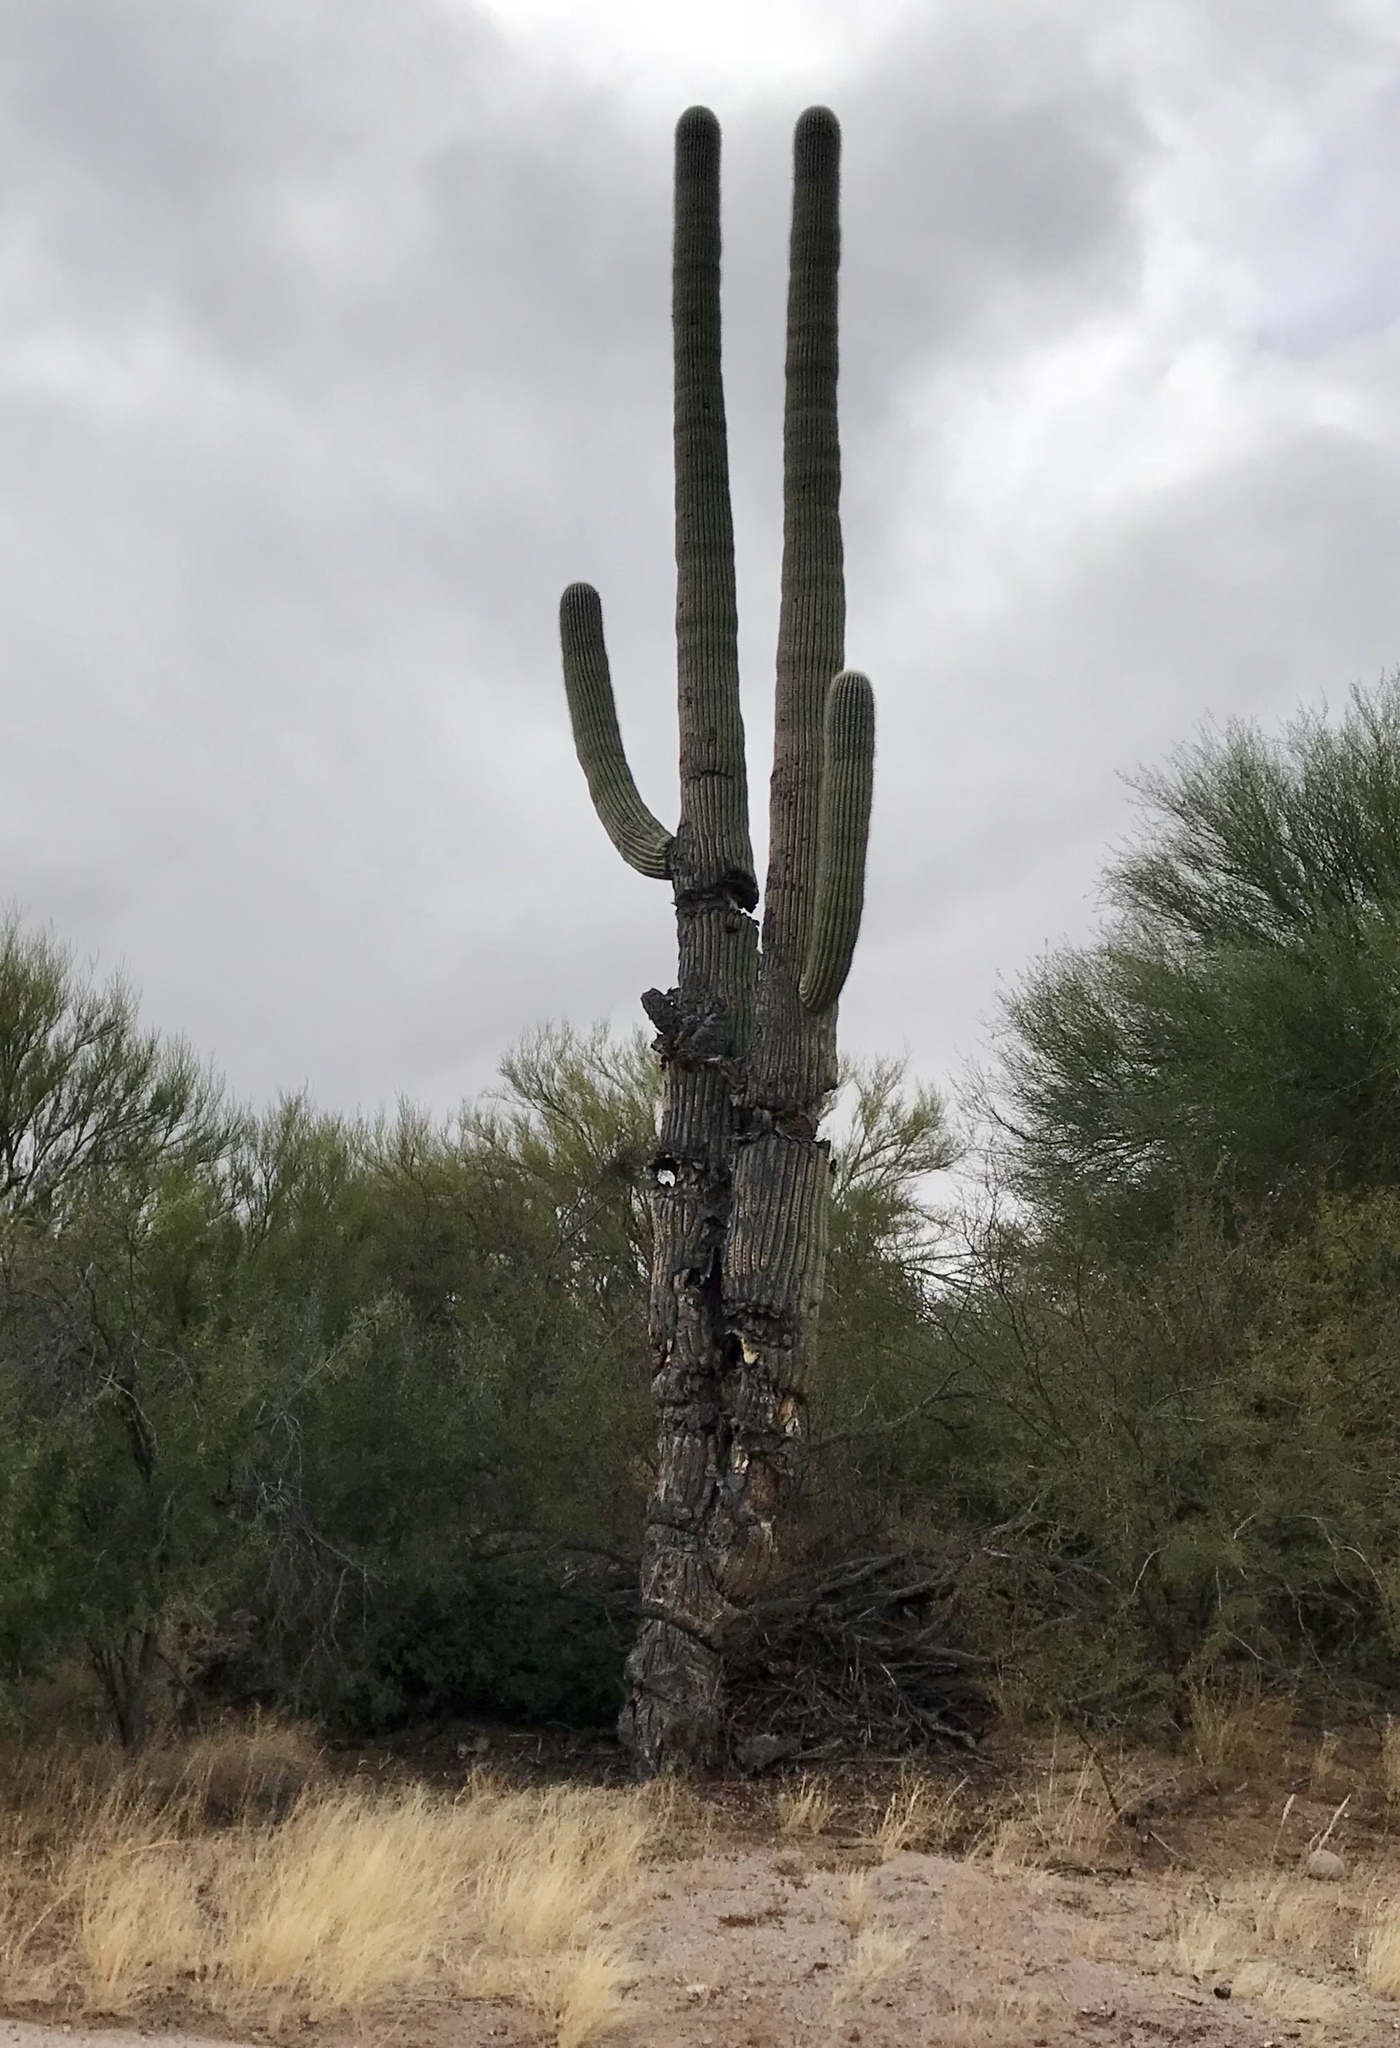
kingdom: Plantae
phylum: Tracheophyta
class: Magnoliopsida
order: Caryophyllales
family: Cactaceae
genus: Carnegiea
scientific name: Carnegiea gigantea
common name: Saguaro
